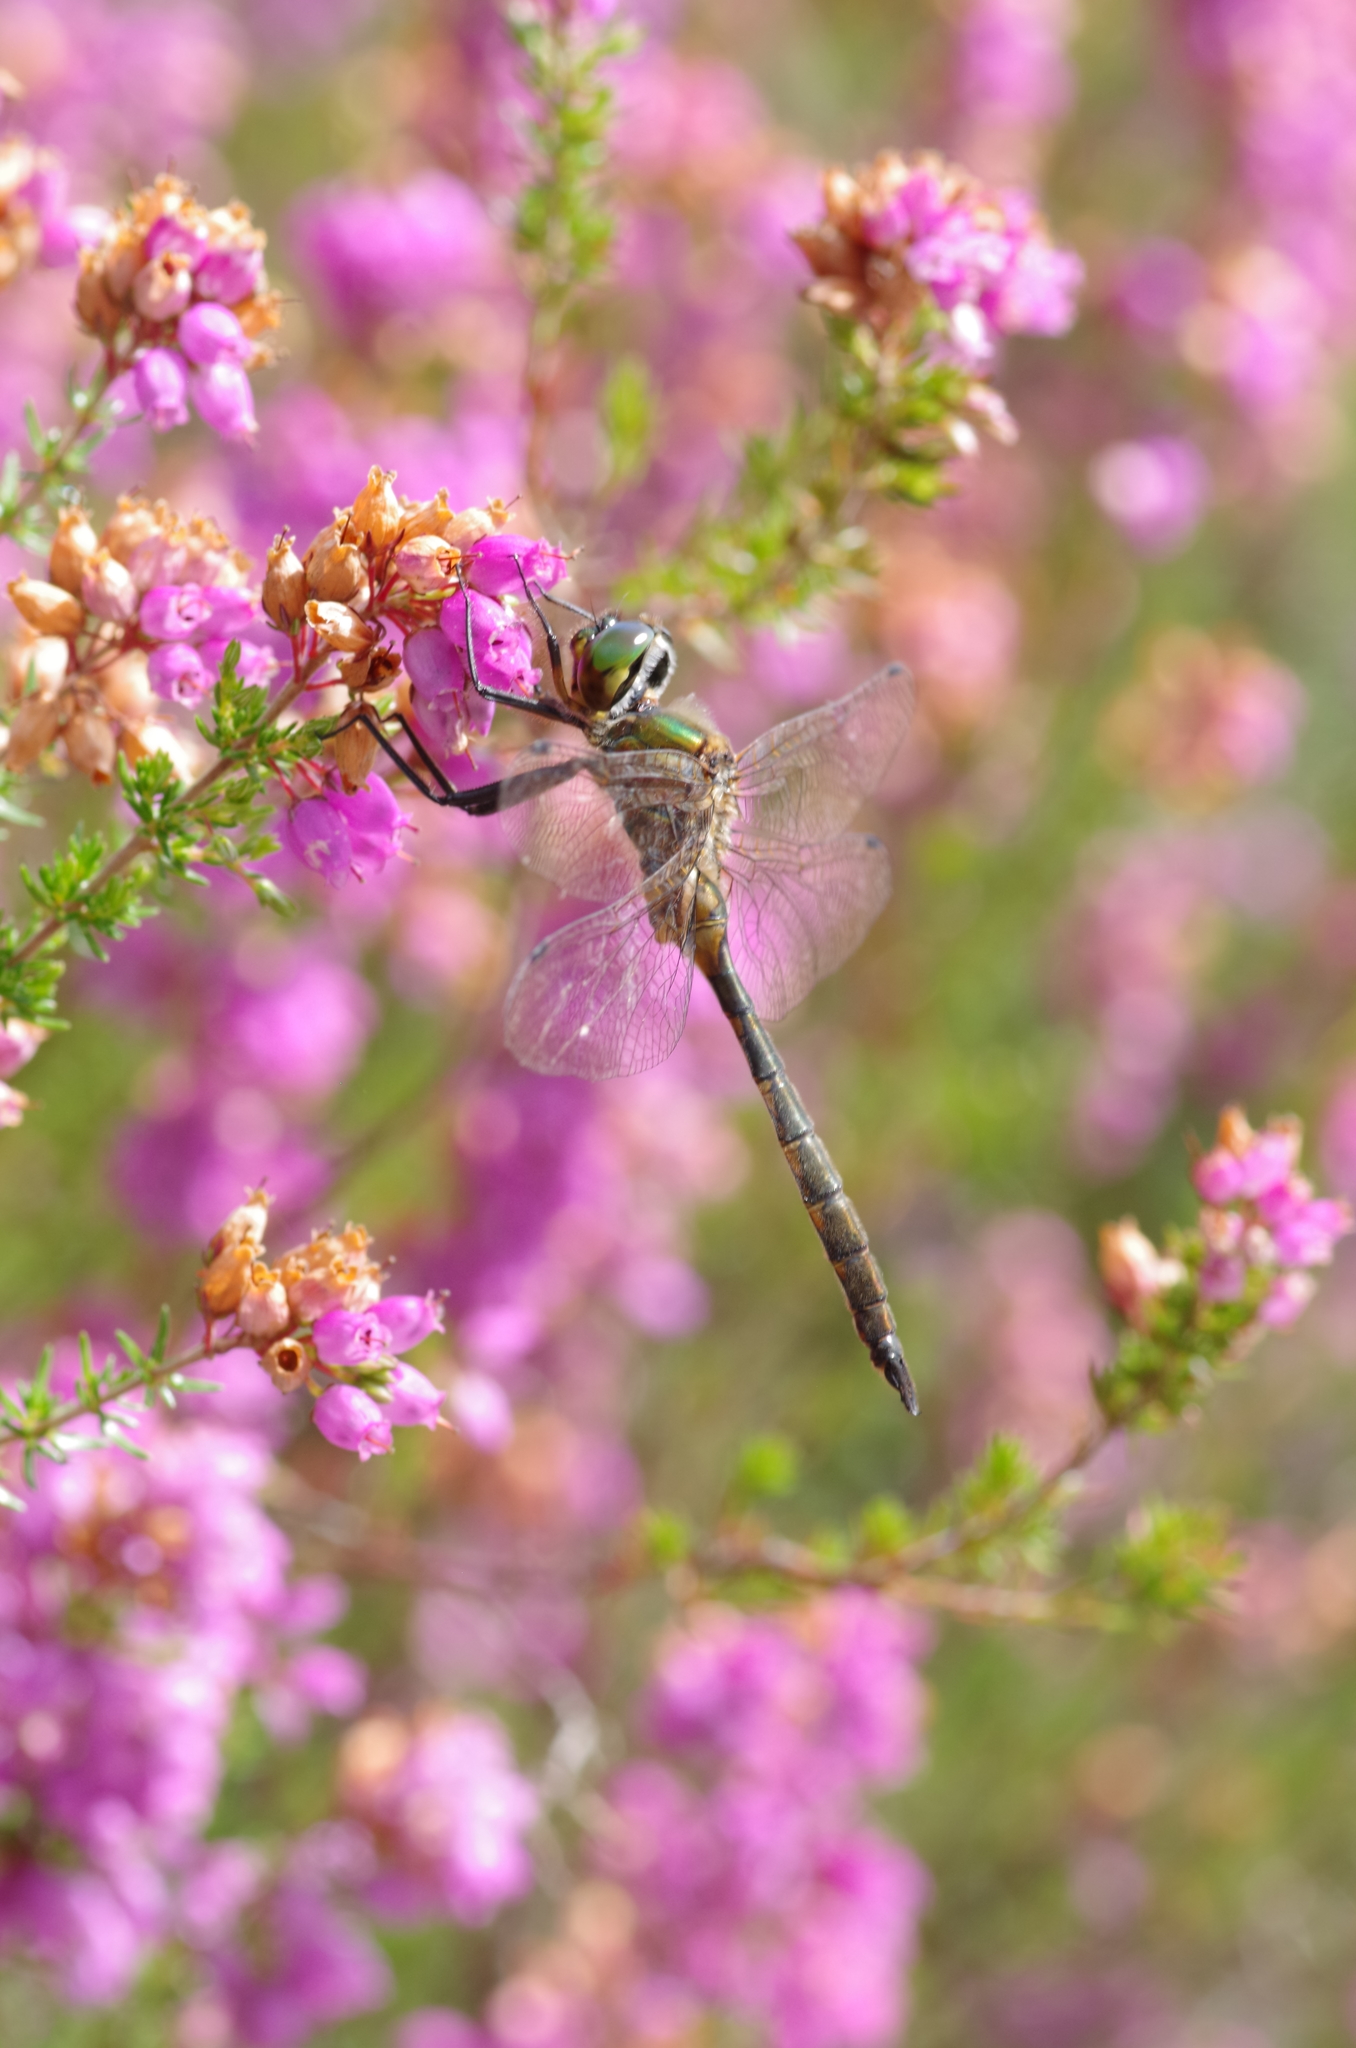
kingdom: Animalia
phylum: Arthropoda
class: Insecta
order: Odonata
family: Corduliidae
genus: Somatochlora
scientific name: Somatochlora flavomaculata
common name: Yellow-spotted emerald
